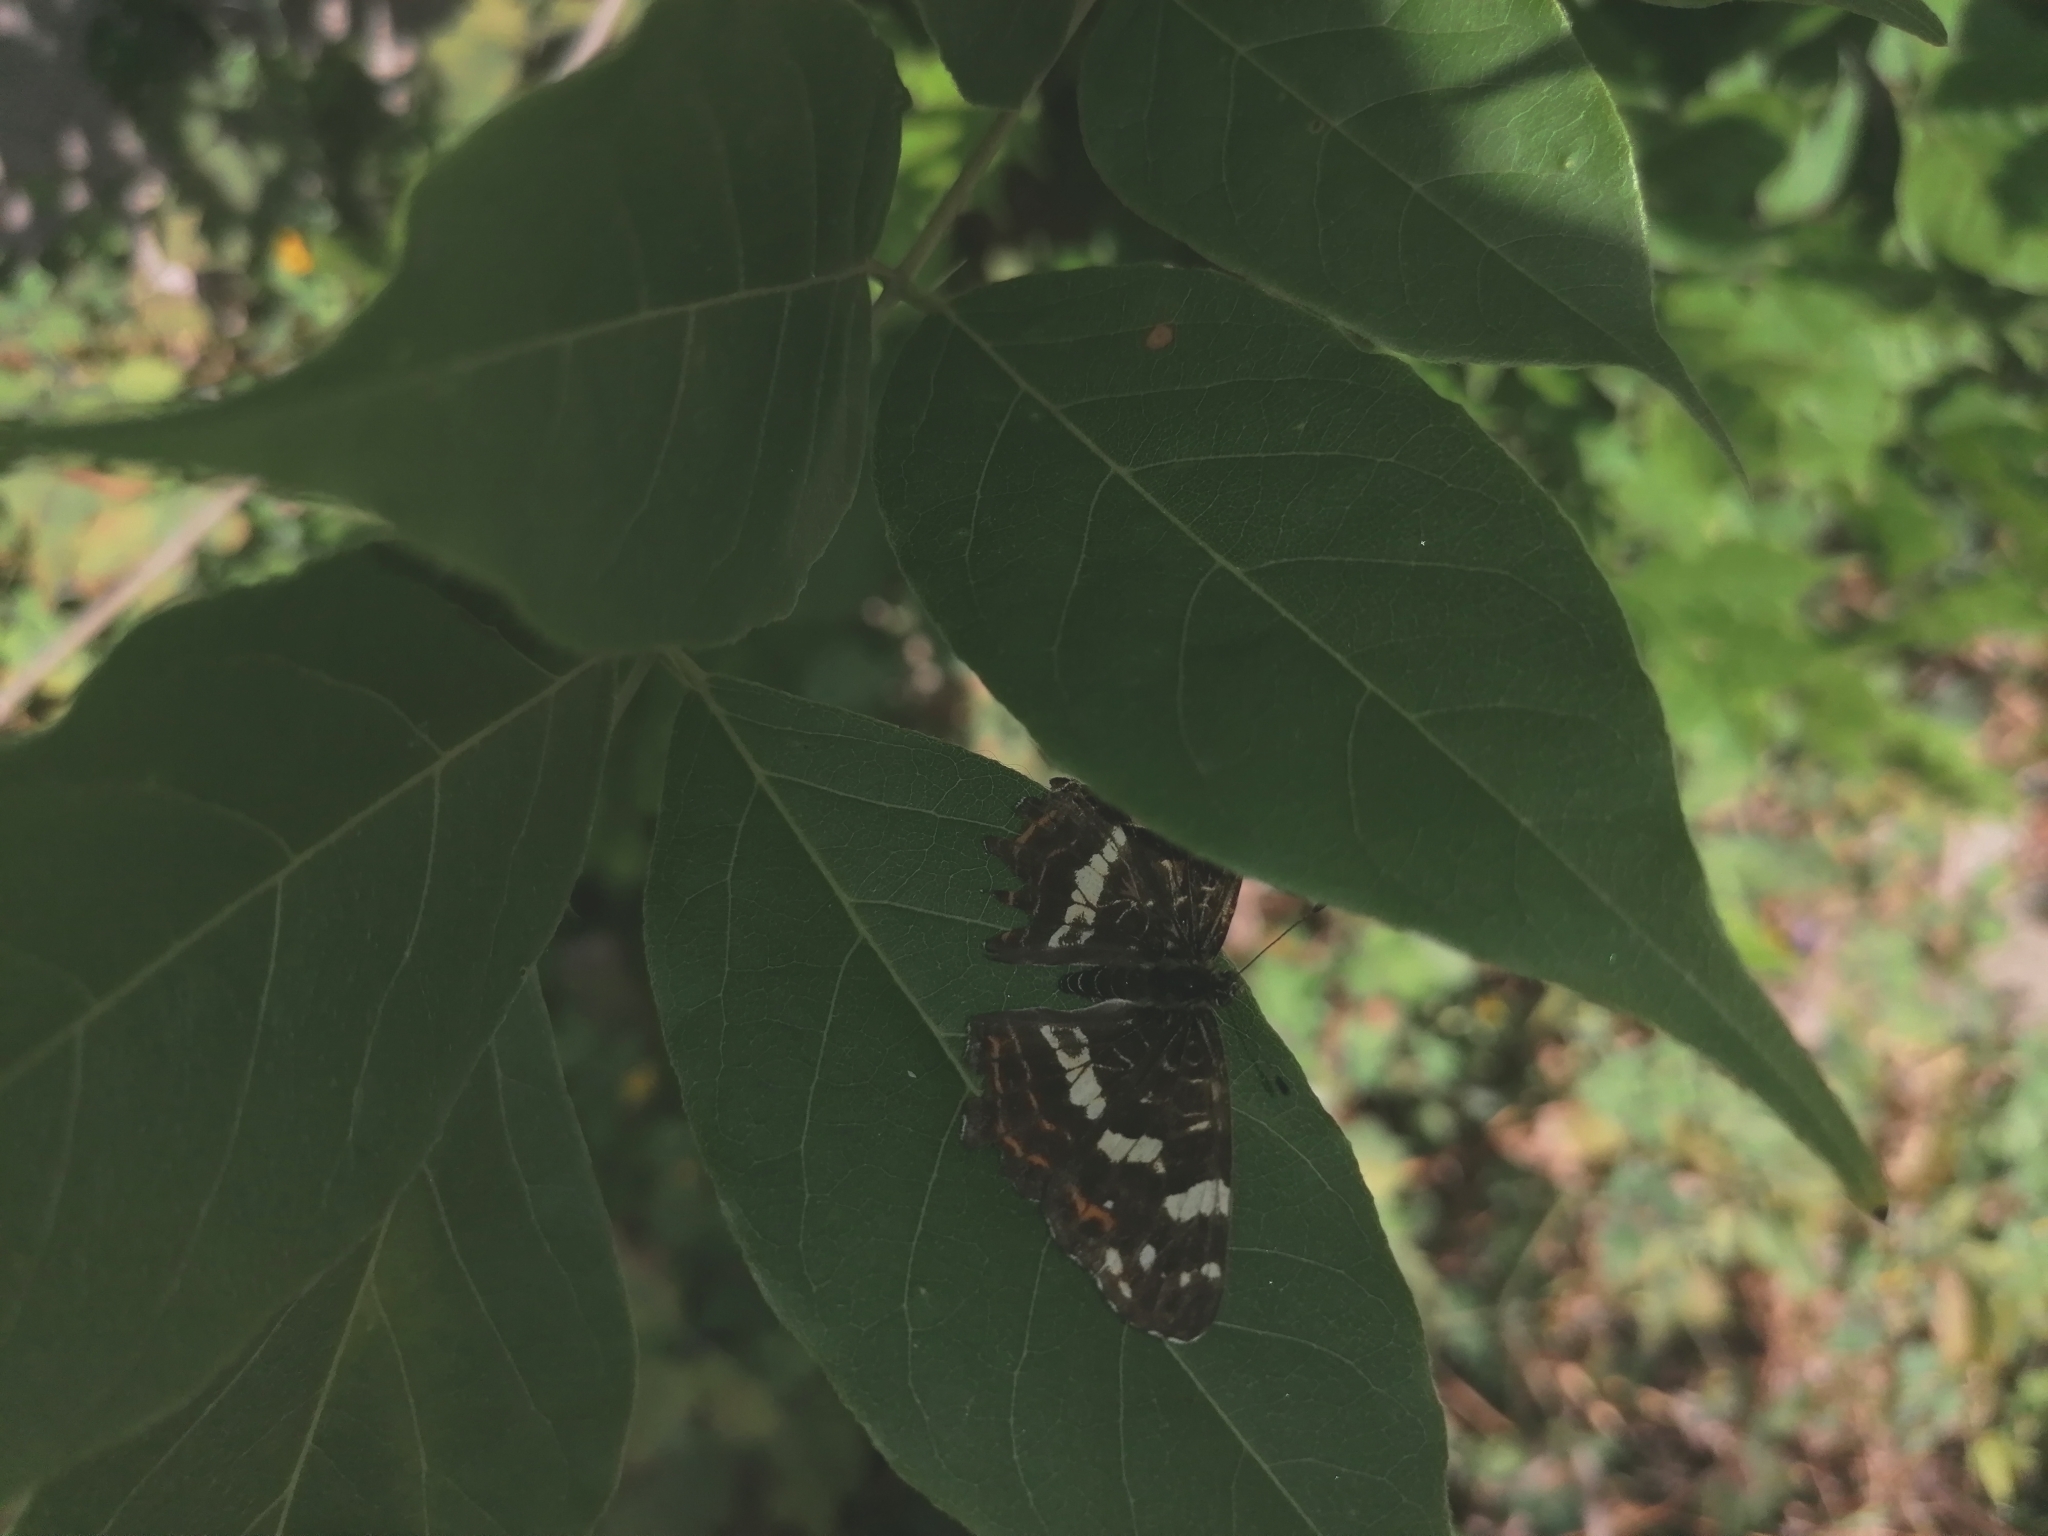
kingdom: Animalia
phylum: Arthropoda
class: Insecta
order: Lepidoptera
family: Nymphalidae
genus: Araschnia
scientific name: Araschnia levana
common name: Map butterfly
